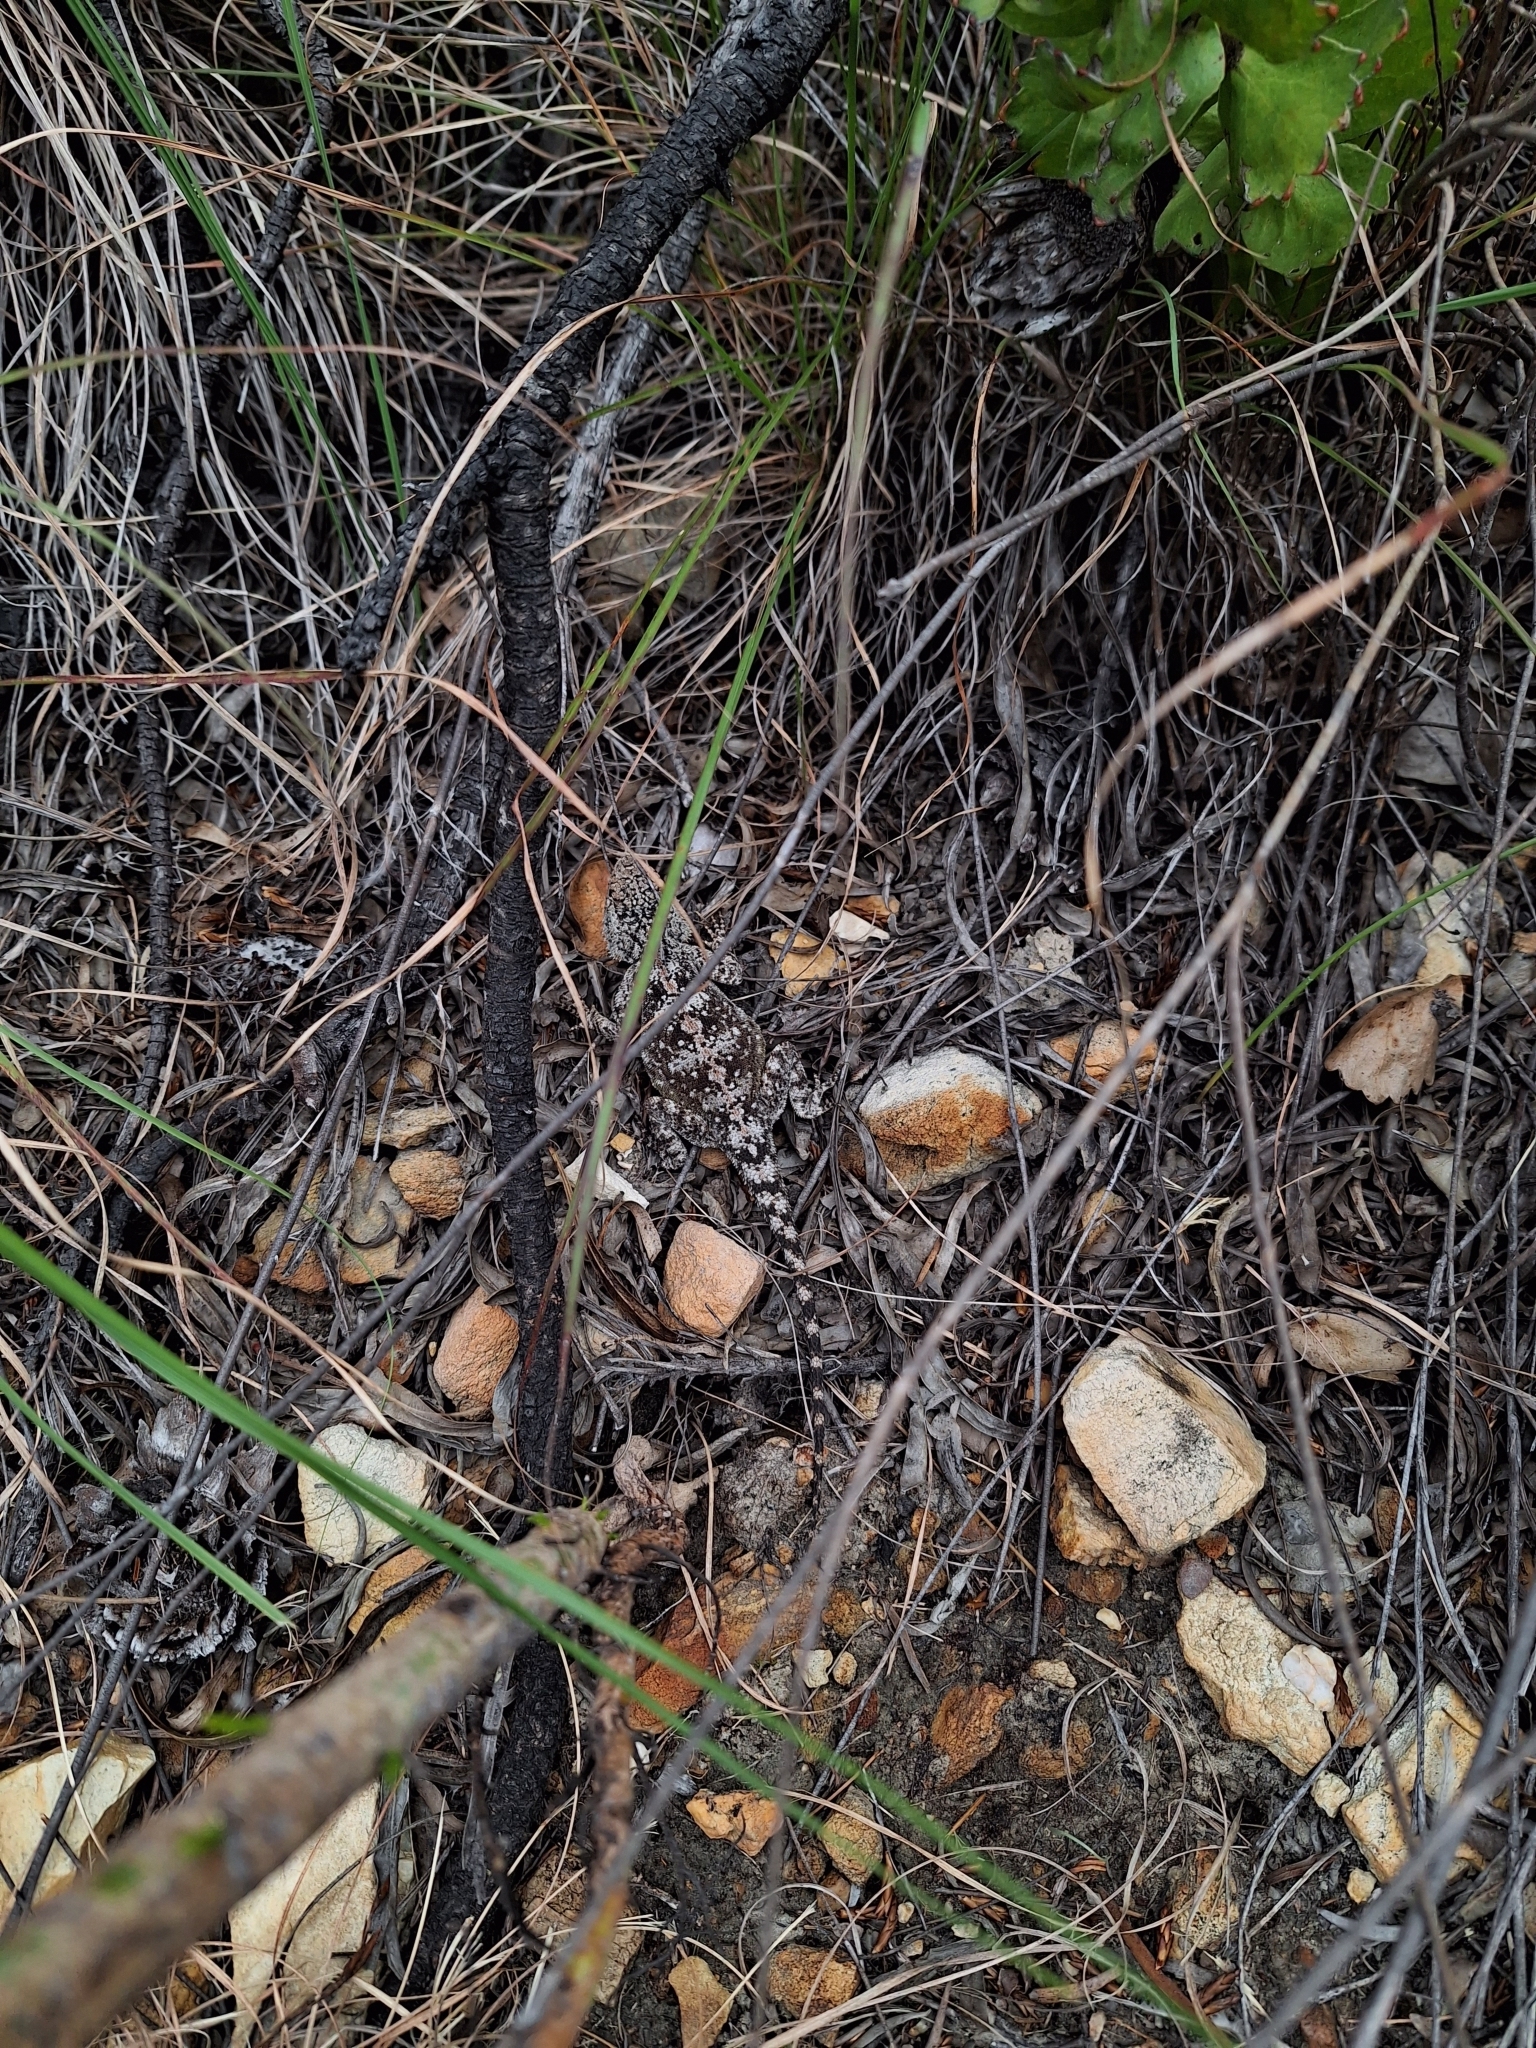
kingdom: Animalia
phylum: Chordata
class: Squamata
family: Agamidae
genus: Agama
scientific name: Agama atra
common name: Southern african rock agama
